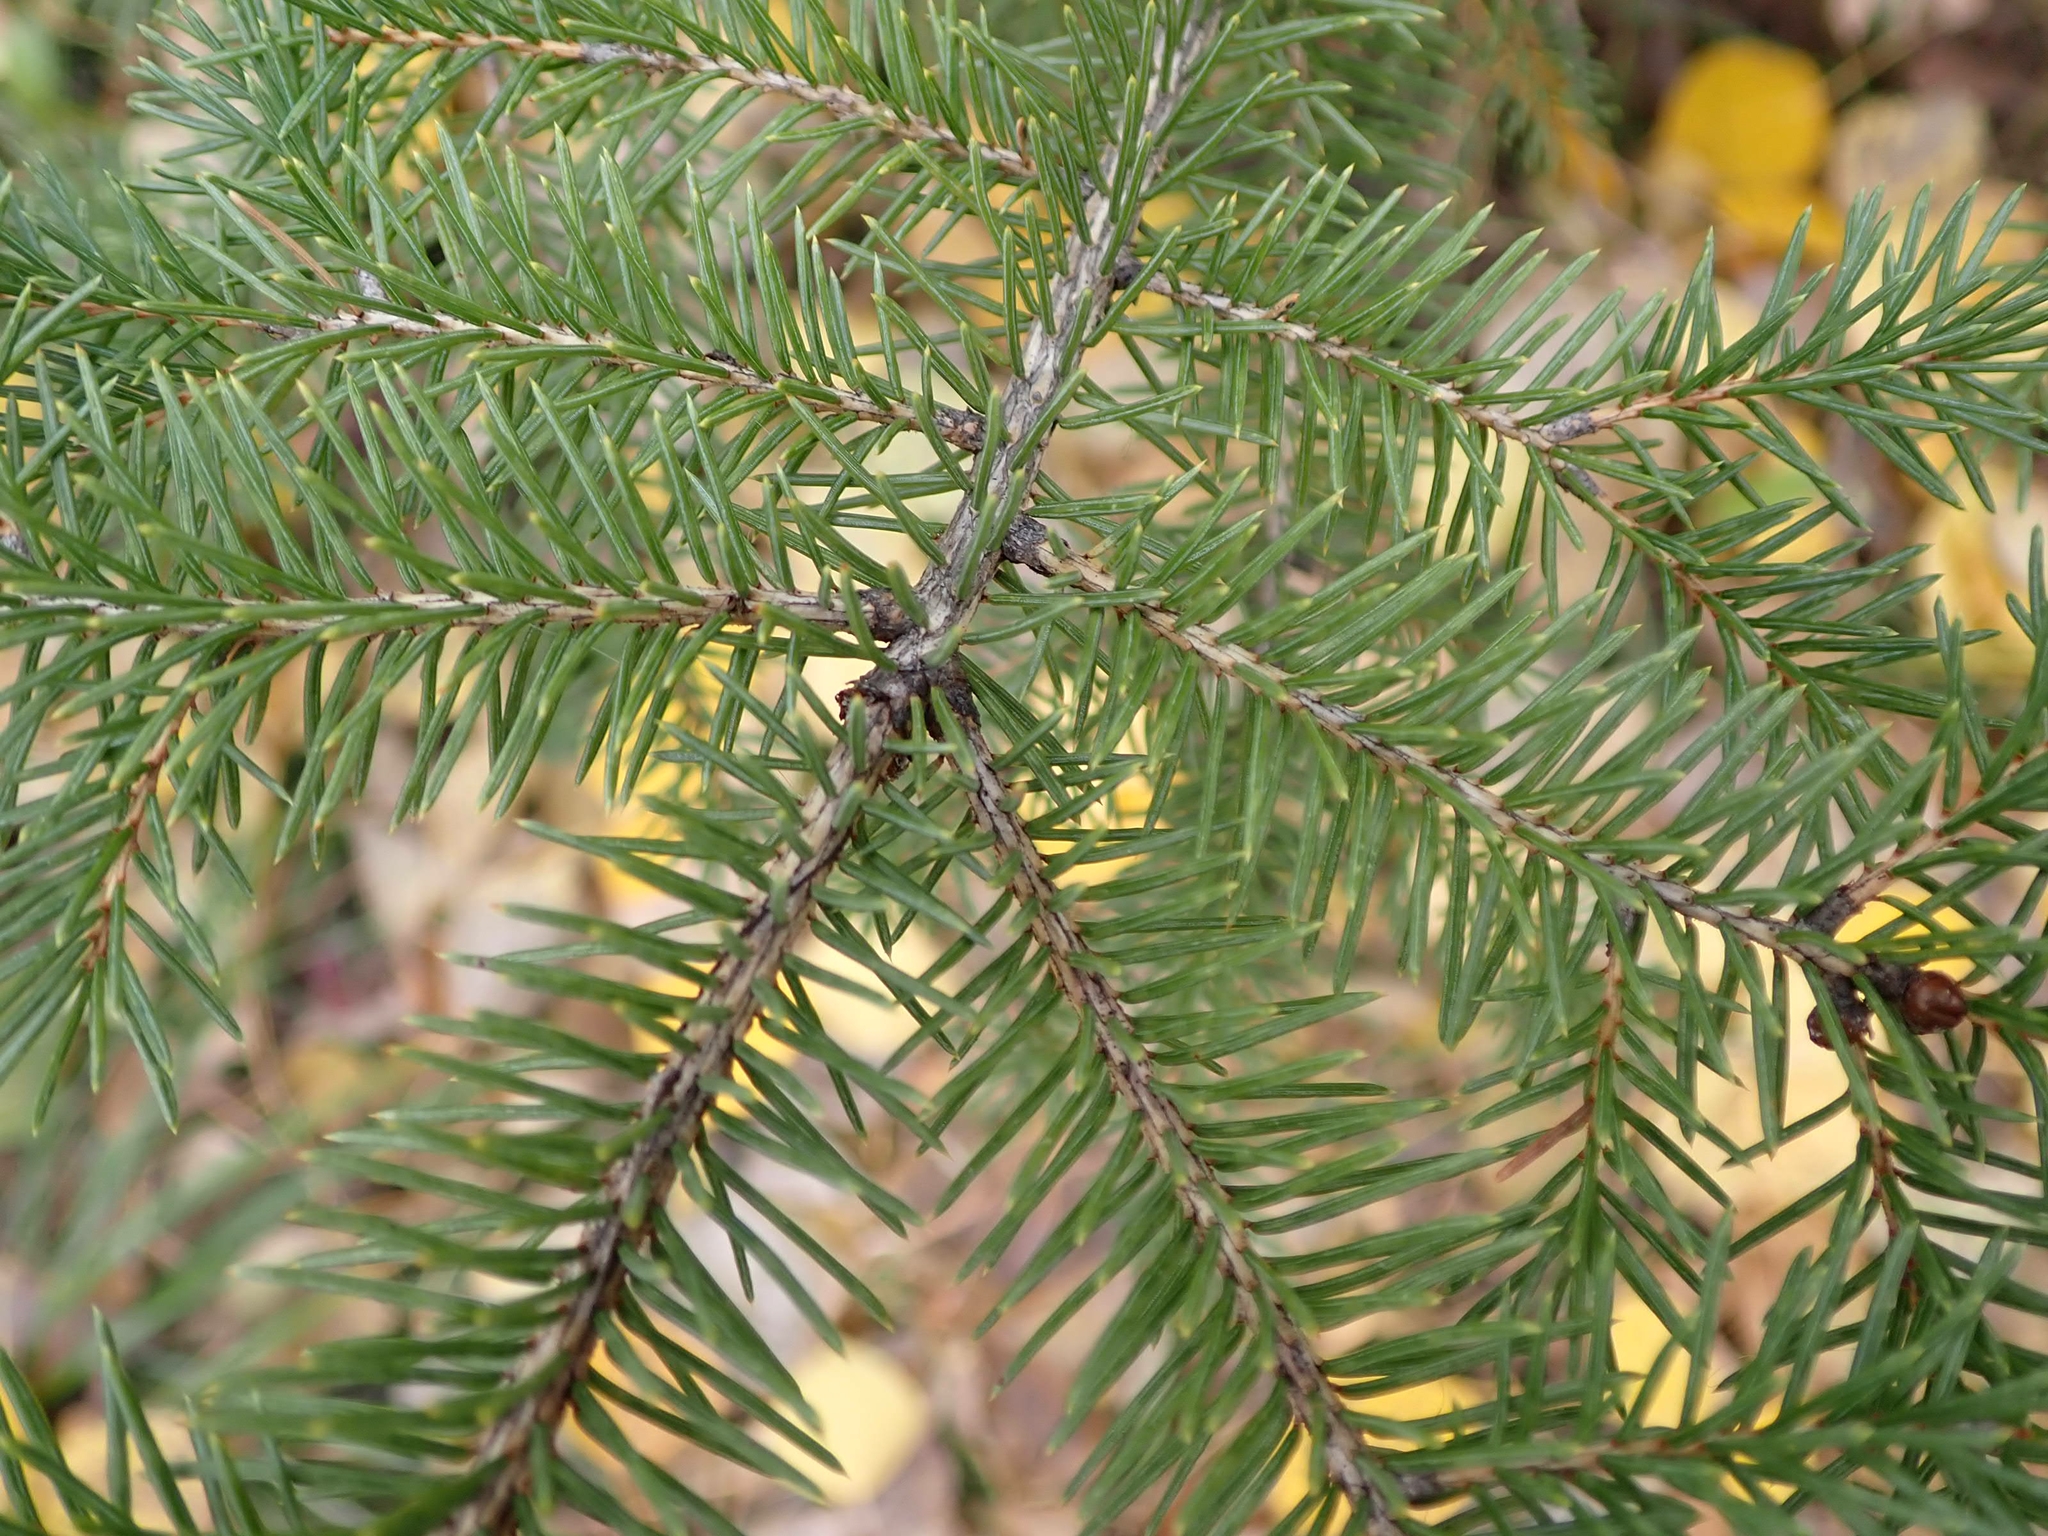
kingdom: Plantae
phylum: Tracheophyta
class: Pinopsida
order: Pinales
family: Pinaceae
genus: Picea
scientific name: Picea glauca
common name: White spruce
